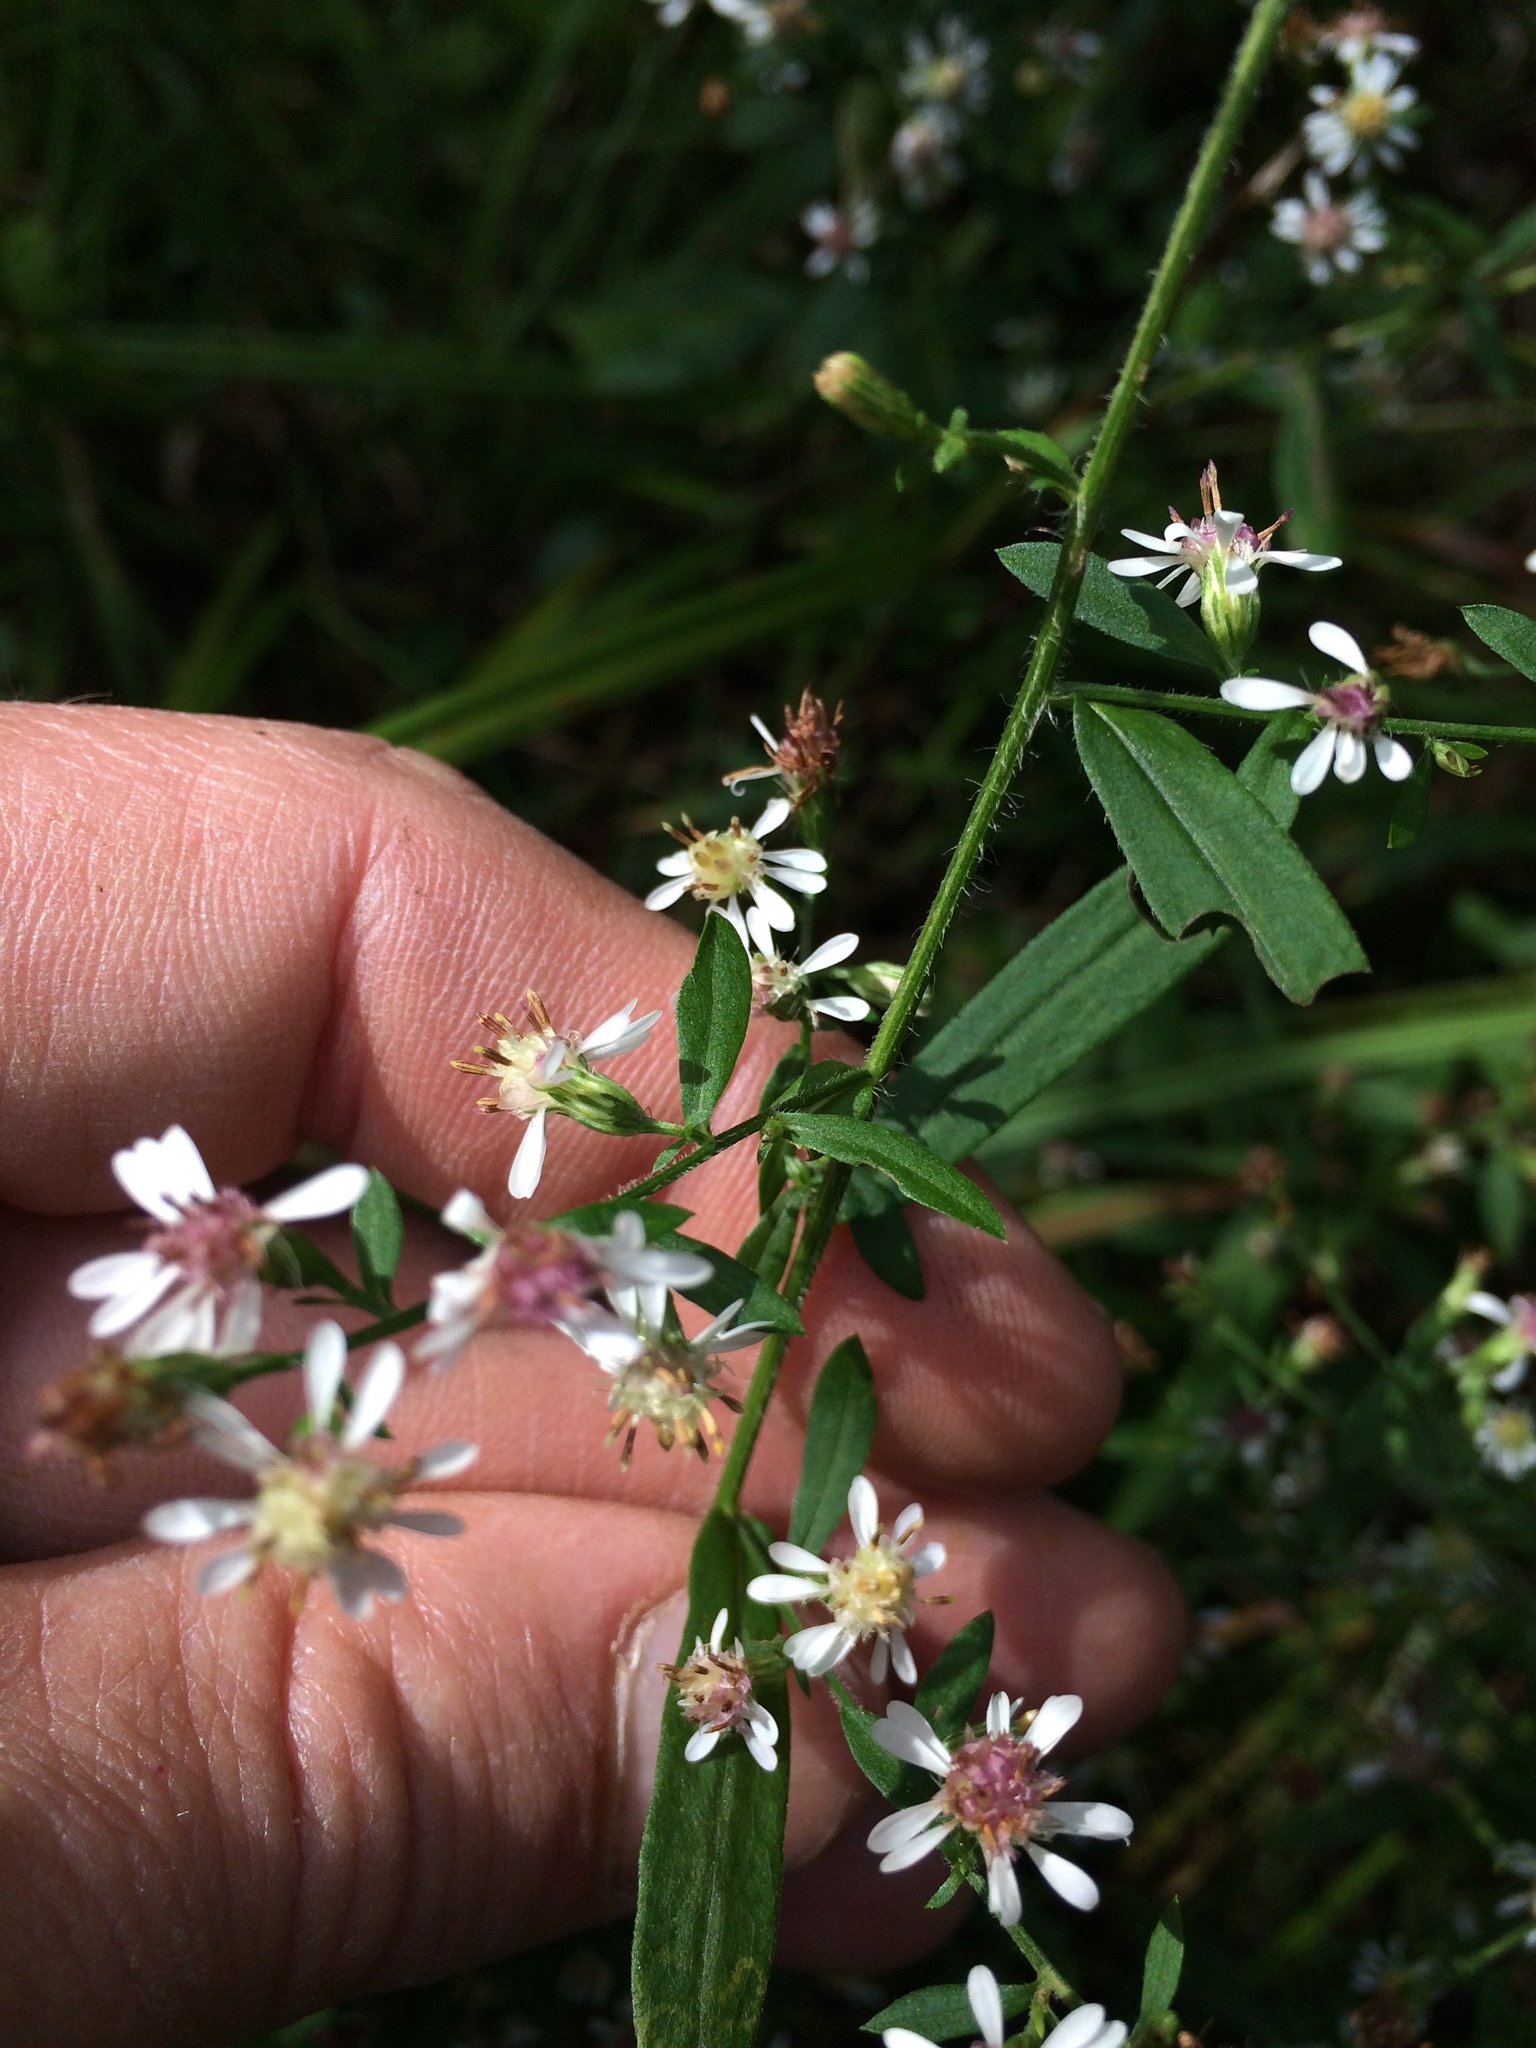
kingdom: Plantae
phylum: Tracheophyta
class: Magnoliopsida
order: Asterales
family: Asteraceae
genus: Symphyotrichum
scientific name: Symphyotrichum lateriflorum
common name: Calico aster
